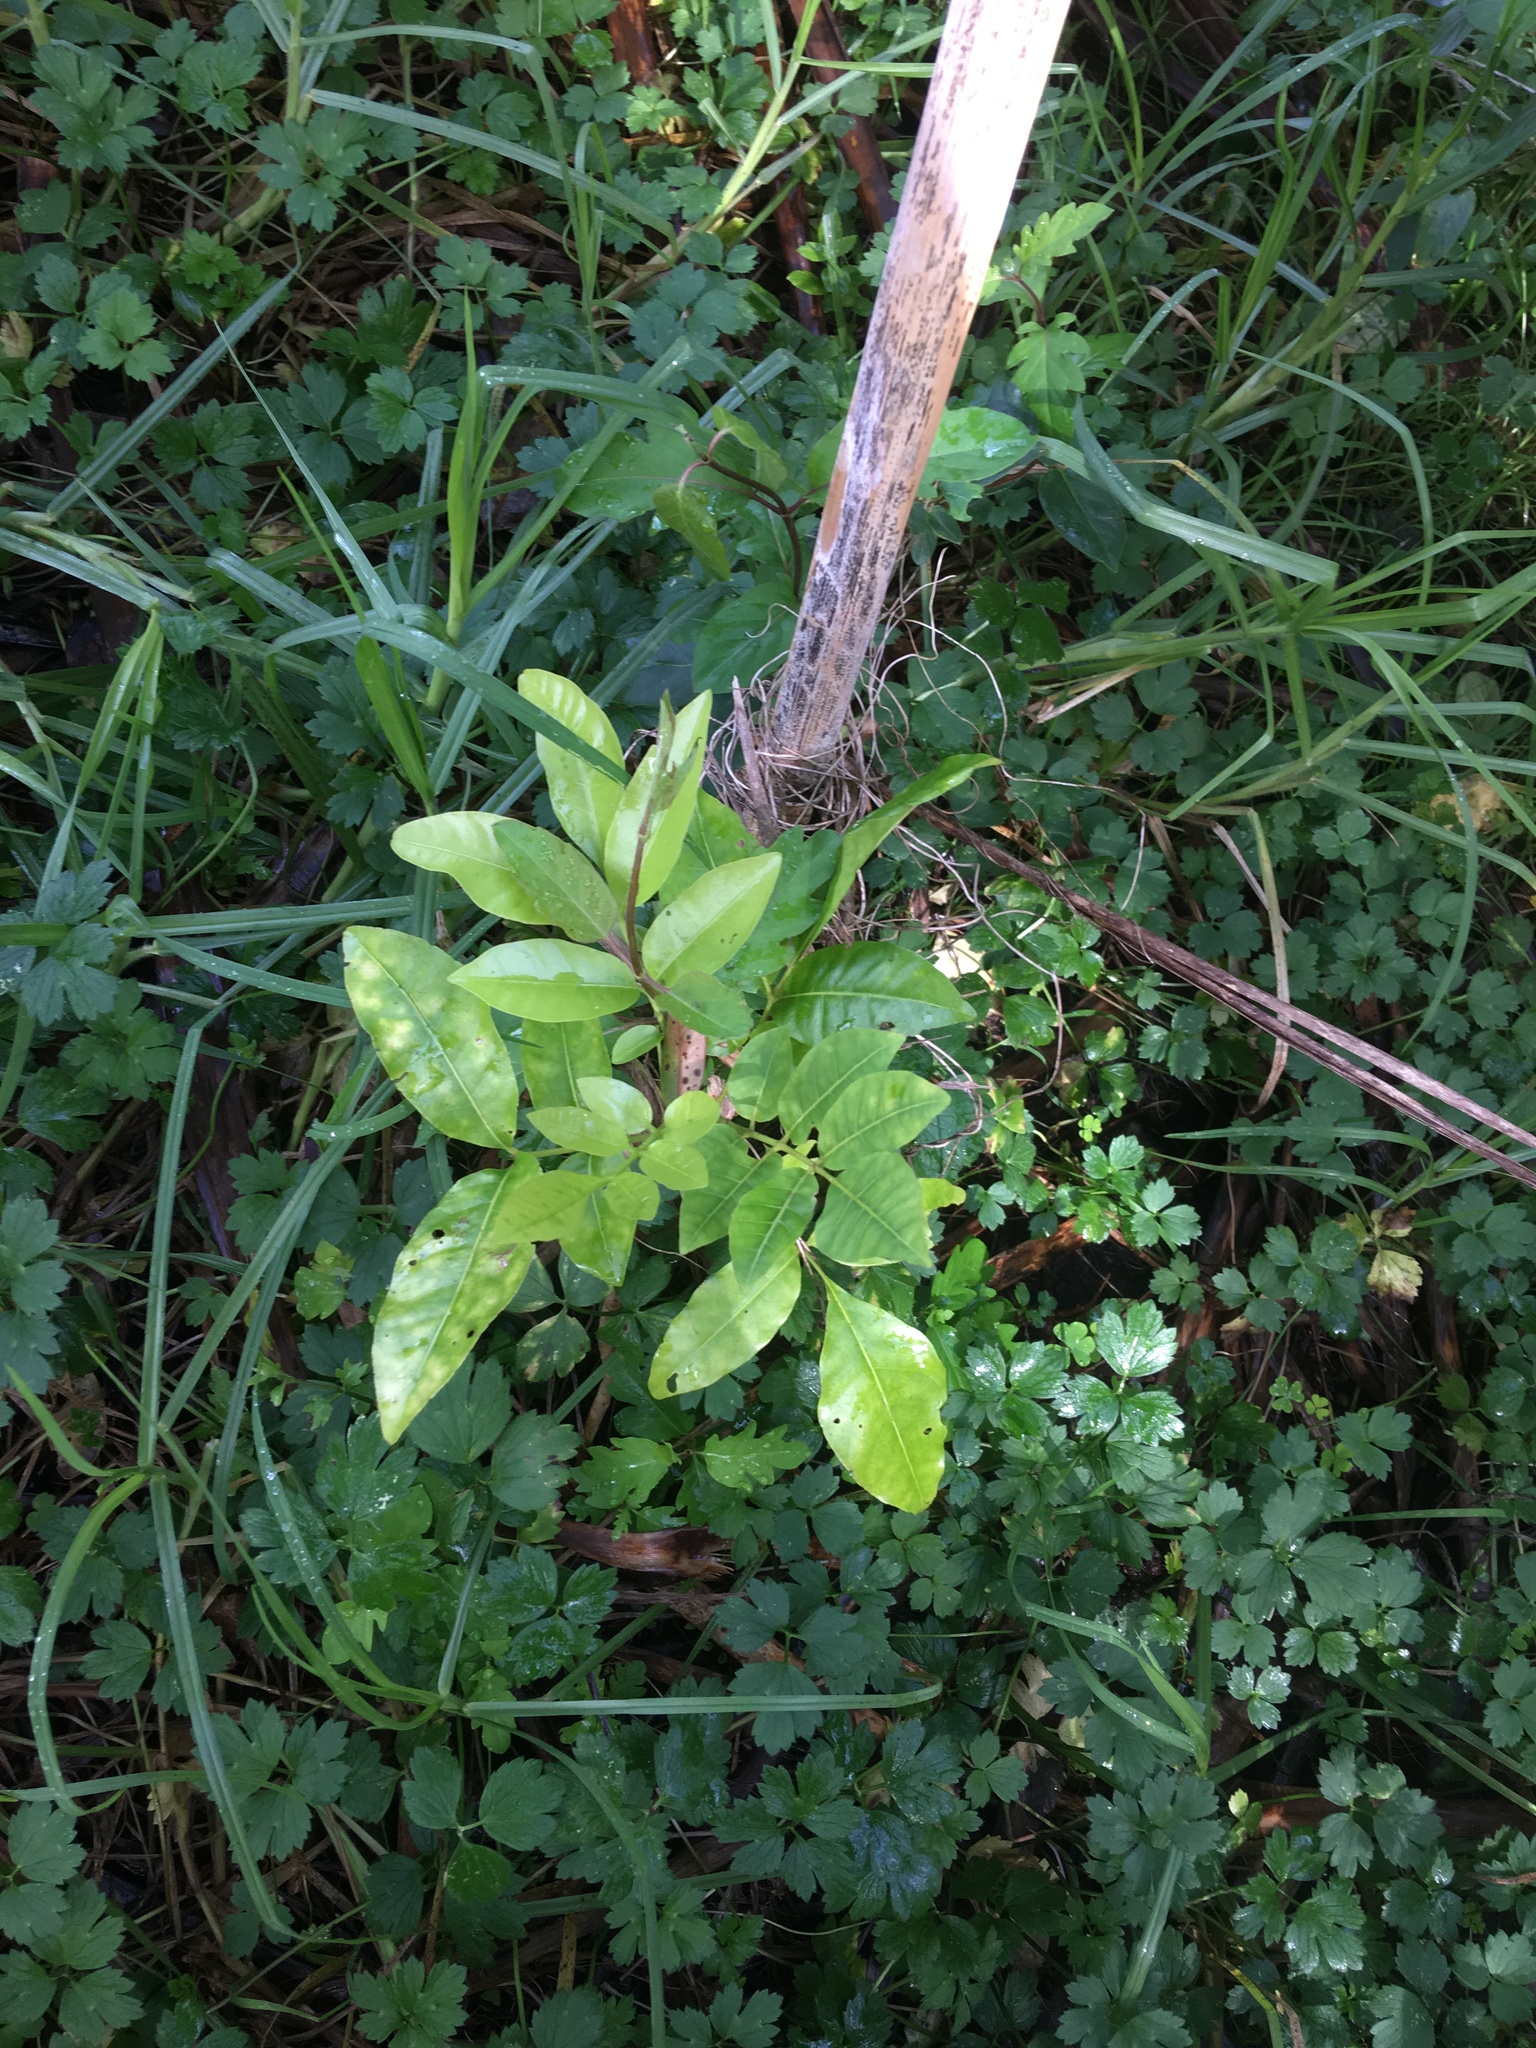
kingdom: Plantae
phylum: Tracheophyta
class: Magnoliopsida
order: Sapindales
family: Meliaceae
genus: Didymocheton
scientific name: Didymocheton spectabilis
